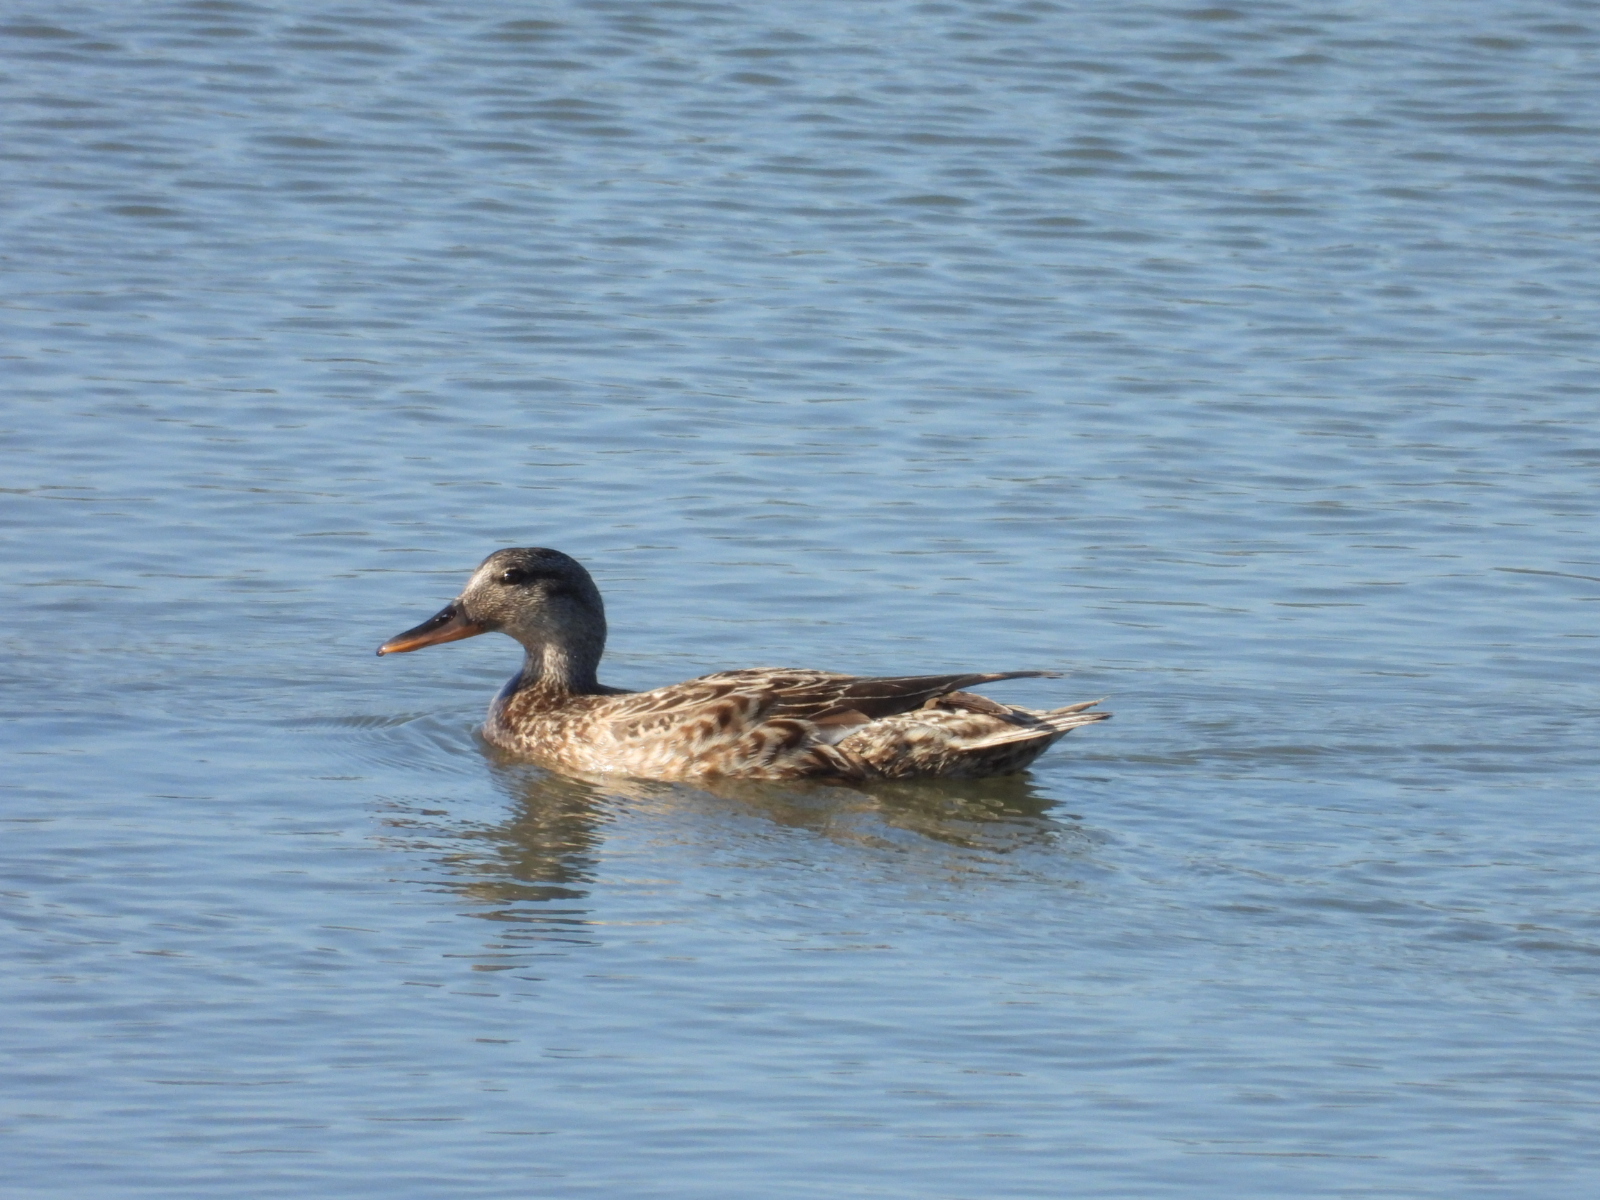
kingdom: Animalia
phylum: Chordata
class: Aves
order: Anseriformes
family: Anatidae
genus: Mareca
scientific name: Mareca strepera
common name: Gadwall
